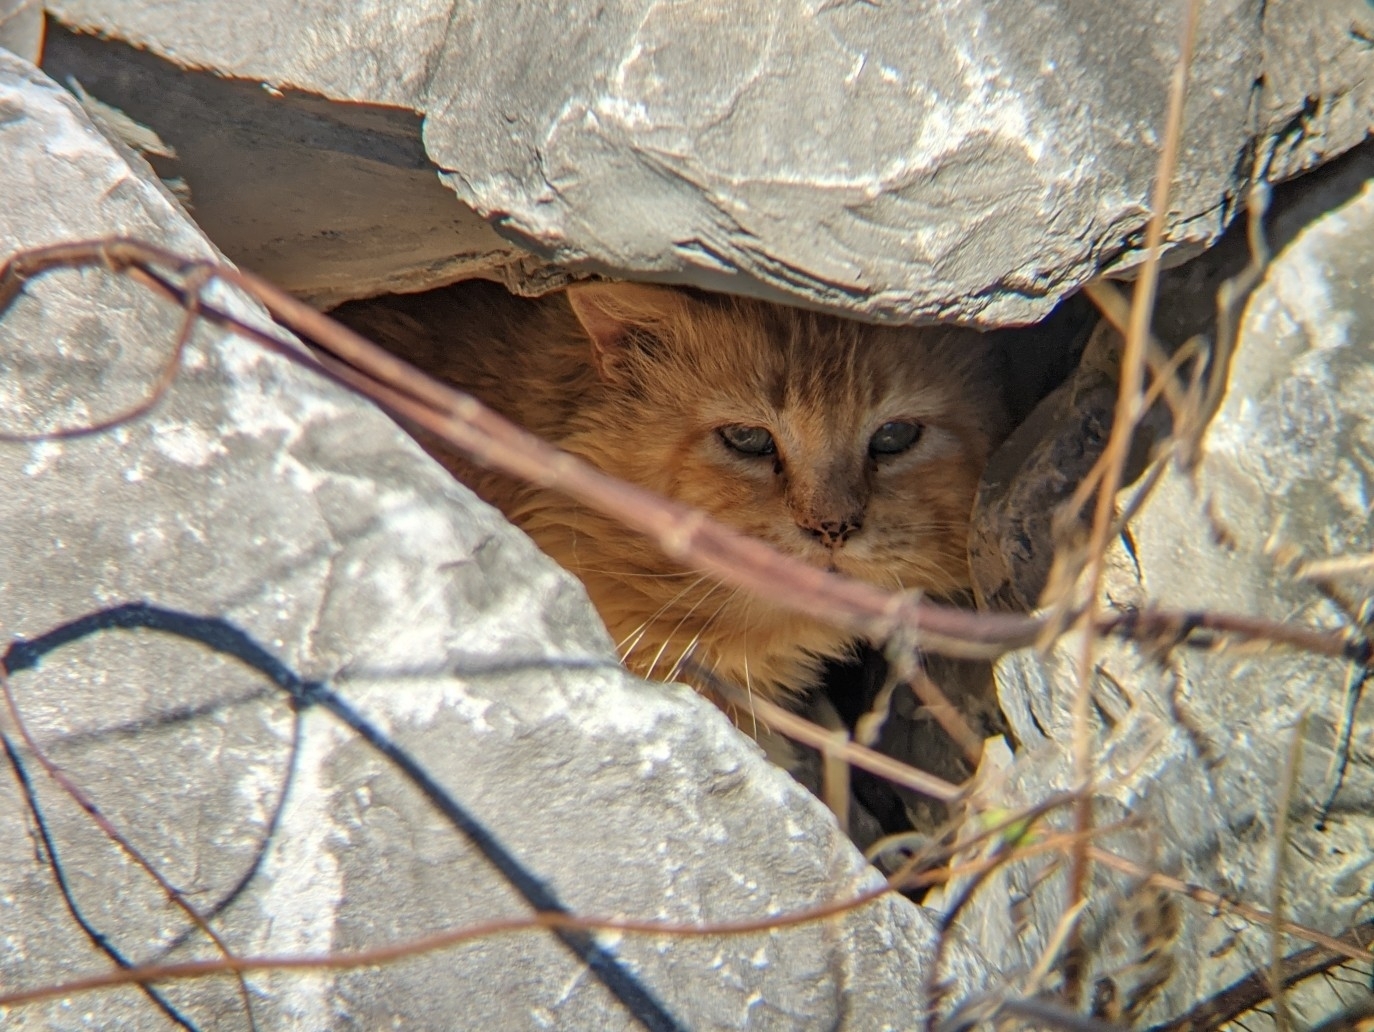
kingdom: Animalia
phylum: Chordata
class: Mammalia
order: Carnivora
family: Felidae
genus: Felis
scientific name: Felis catus
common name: Domestic cat
